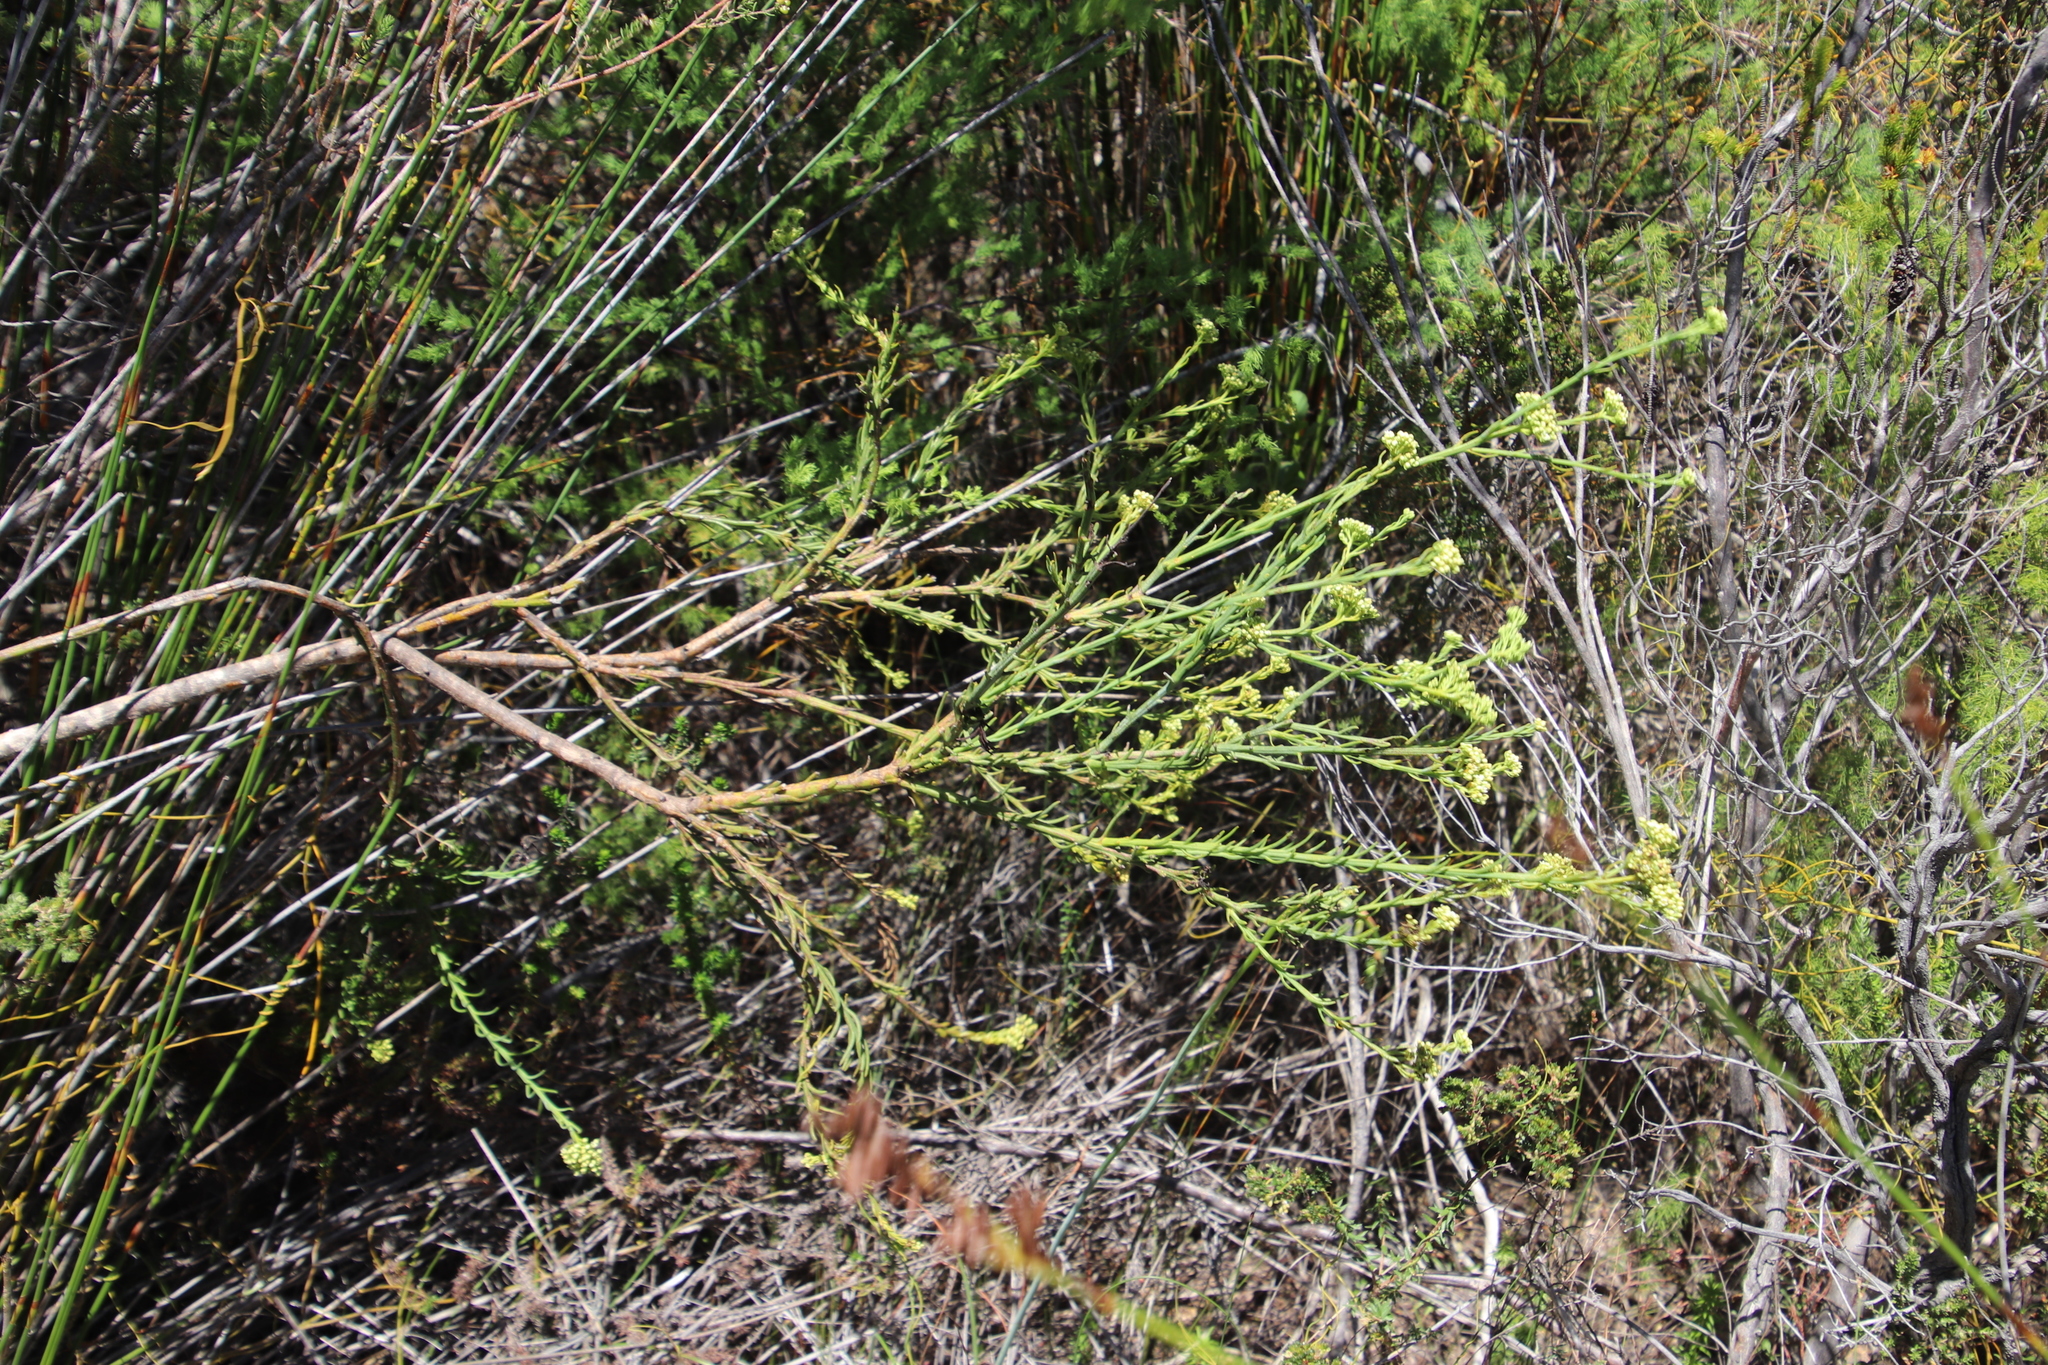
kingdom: Plantae
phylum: Tracheophyta
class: Magnoliopsida
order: Santalales
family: Thesiaceae
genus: Thesium
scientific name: Thesium strictum
